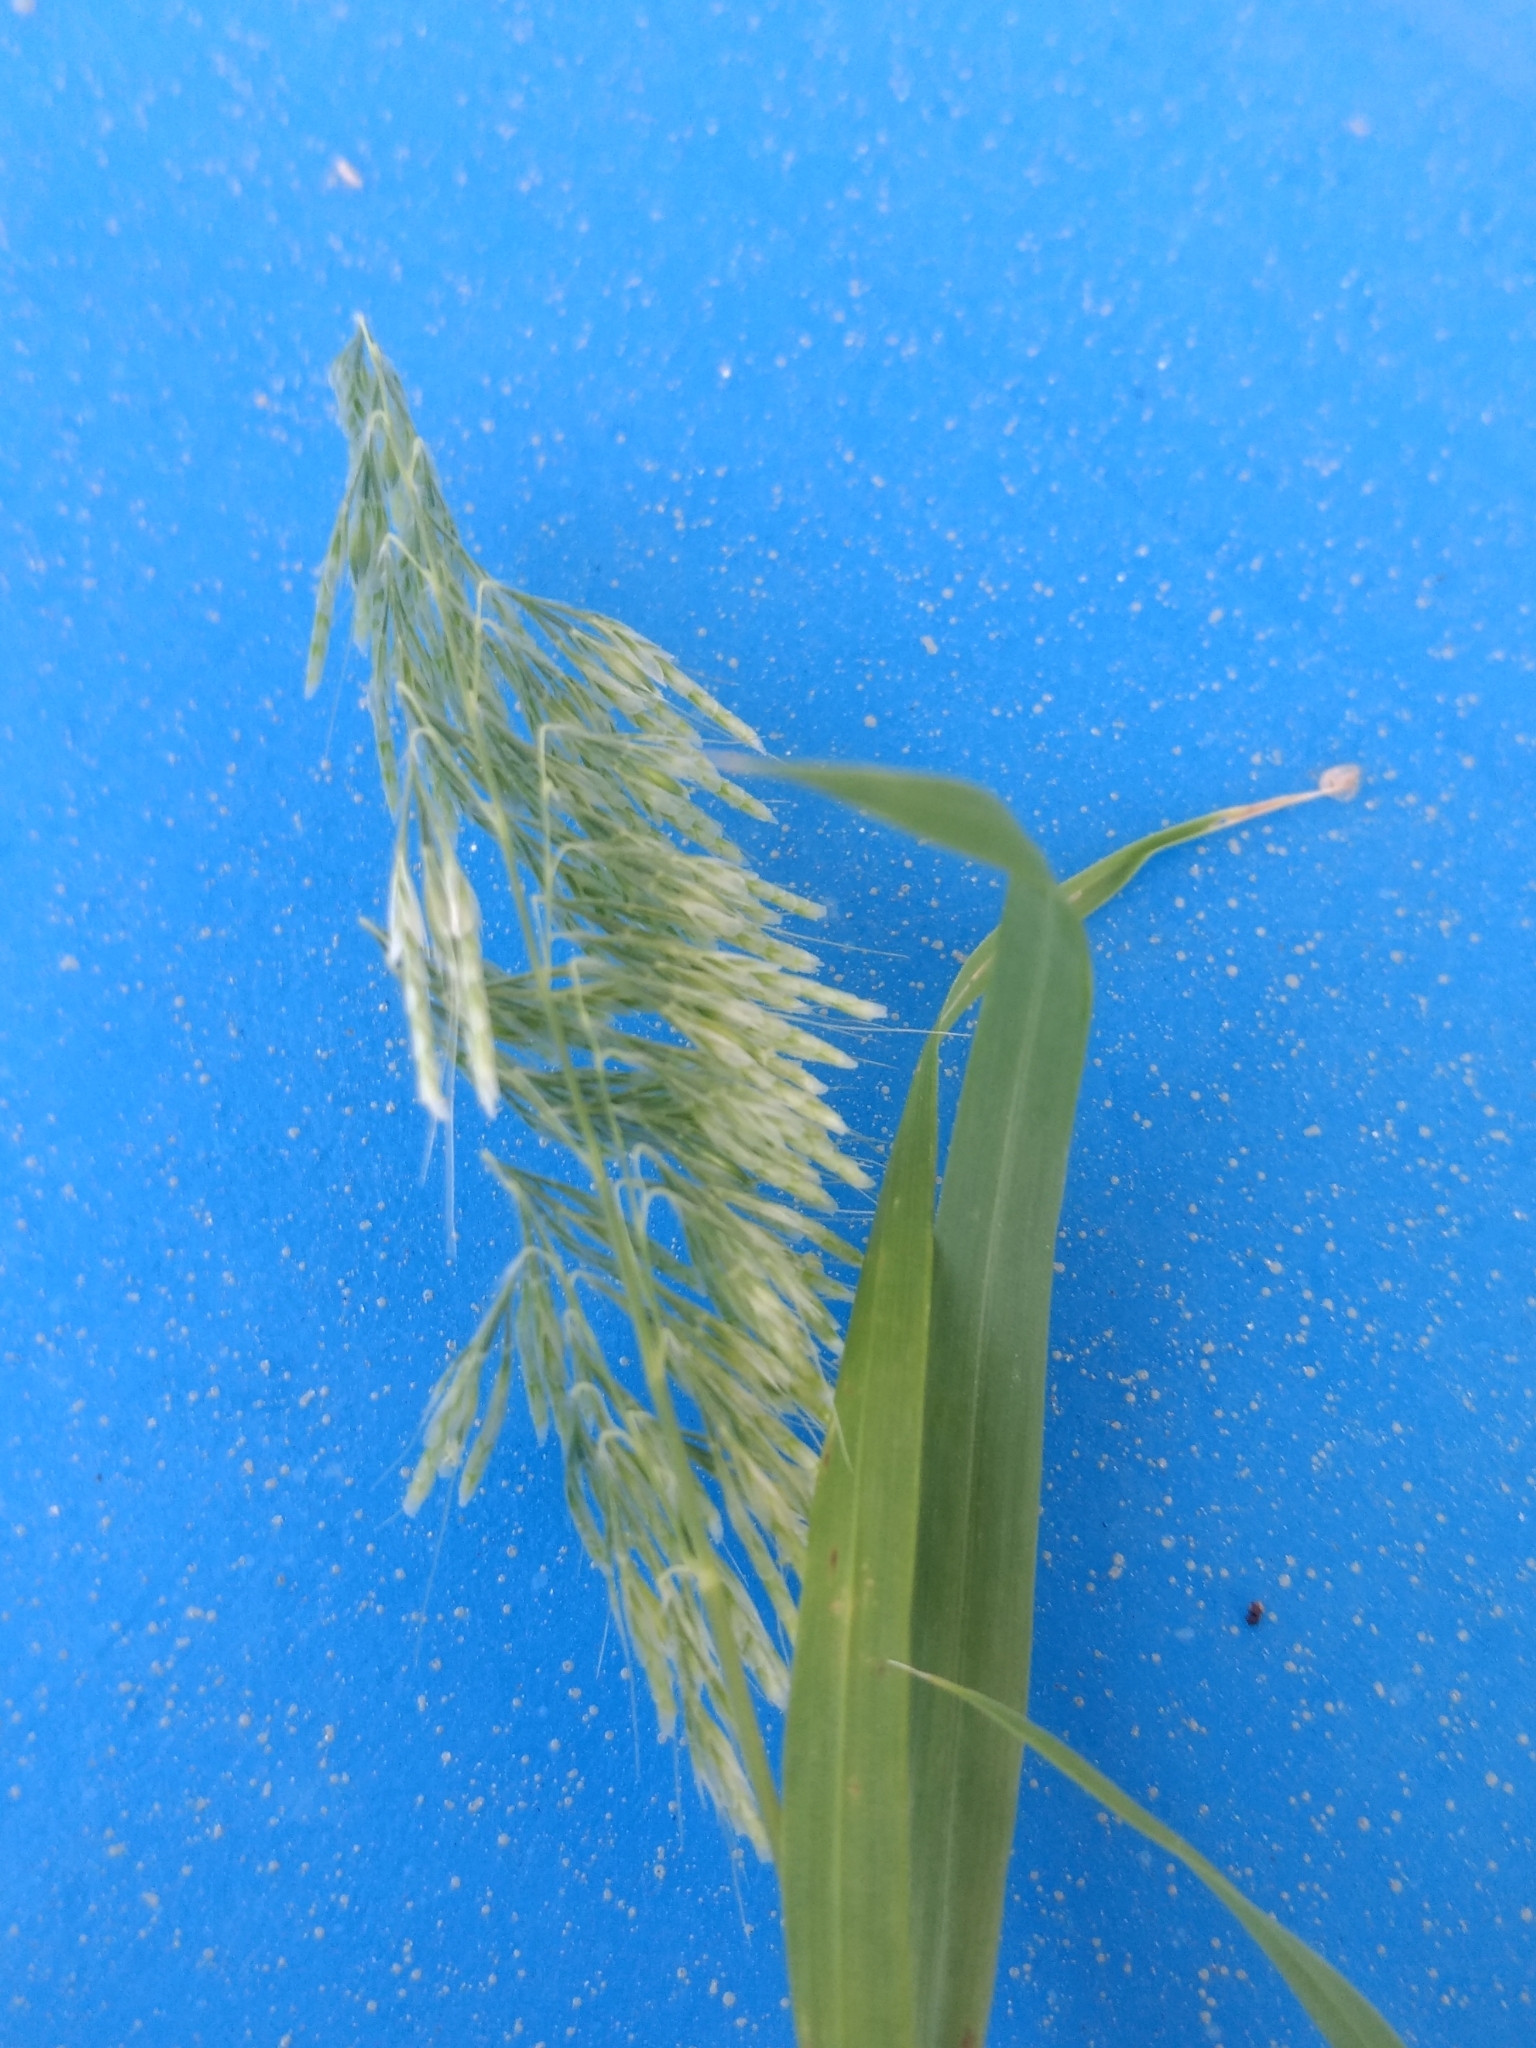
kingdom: Plantae
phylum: Tracheophyta
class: Liliopsida
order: Poales
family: Poaceae
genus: Lamarckia
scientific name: Lamarckia aurea
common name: Golden dog's-tail
